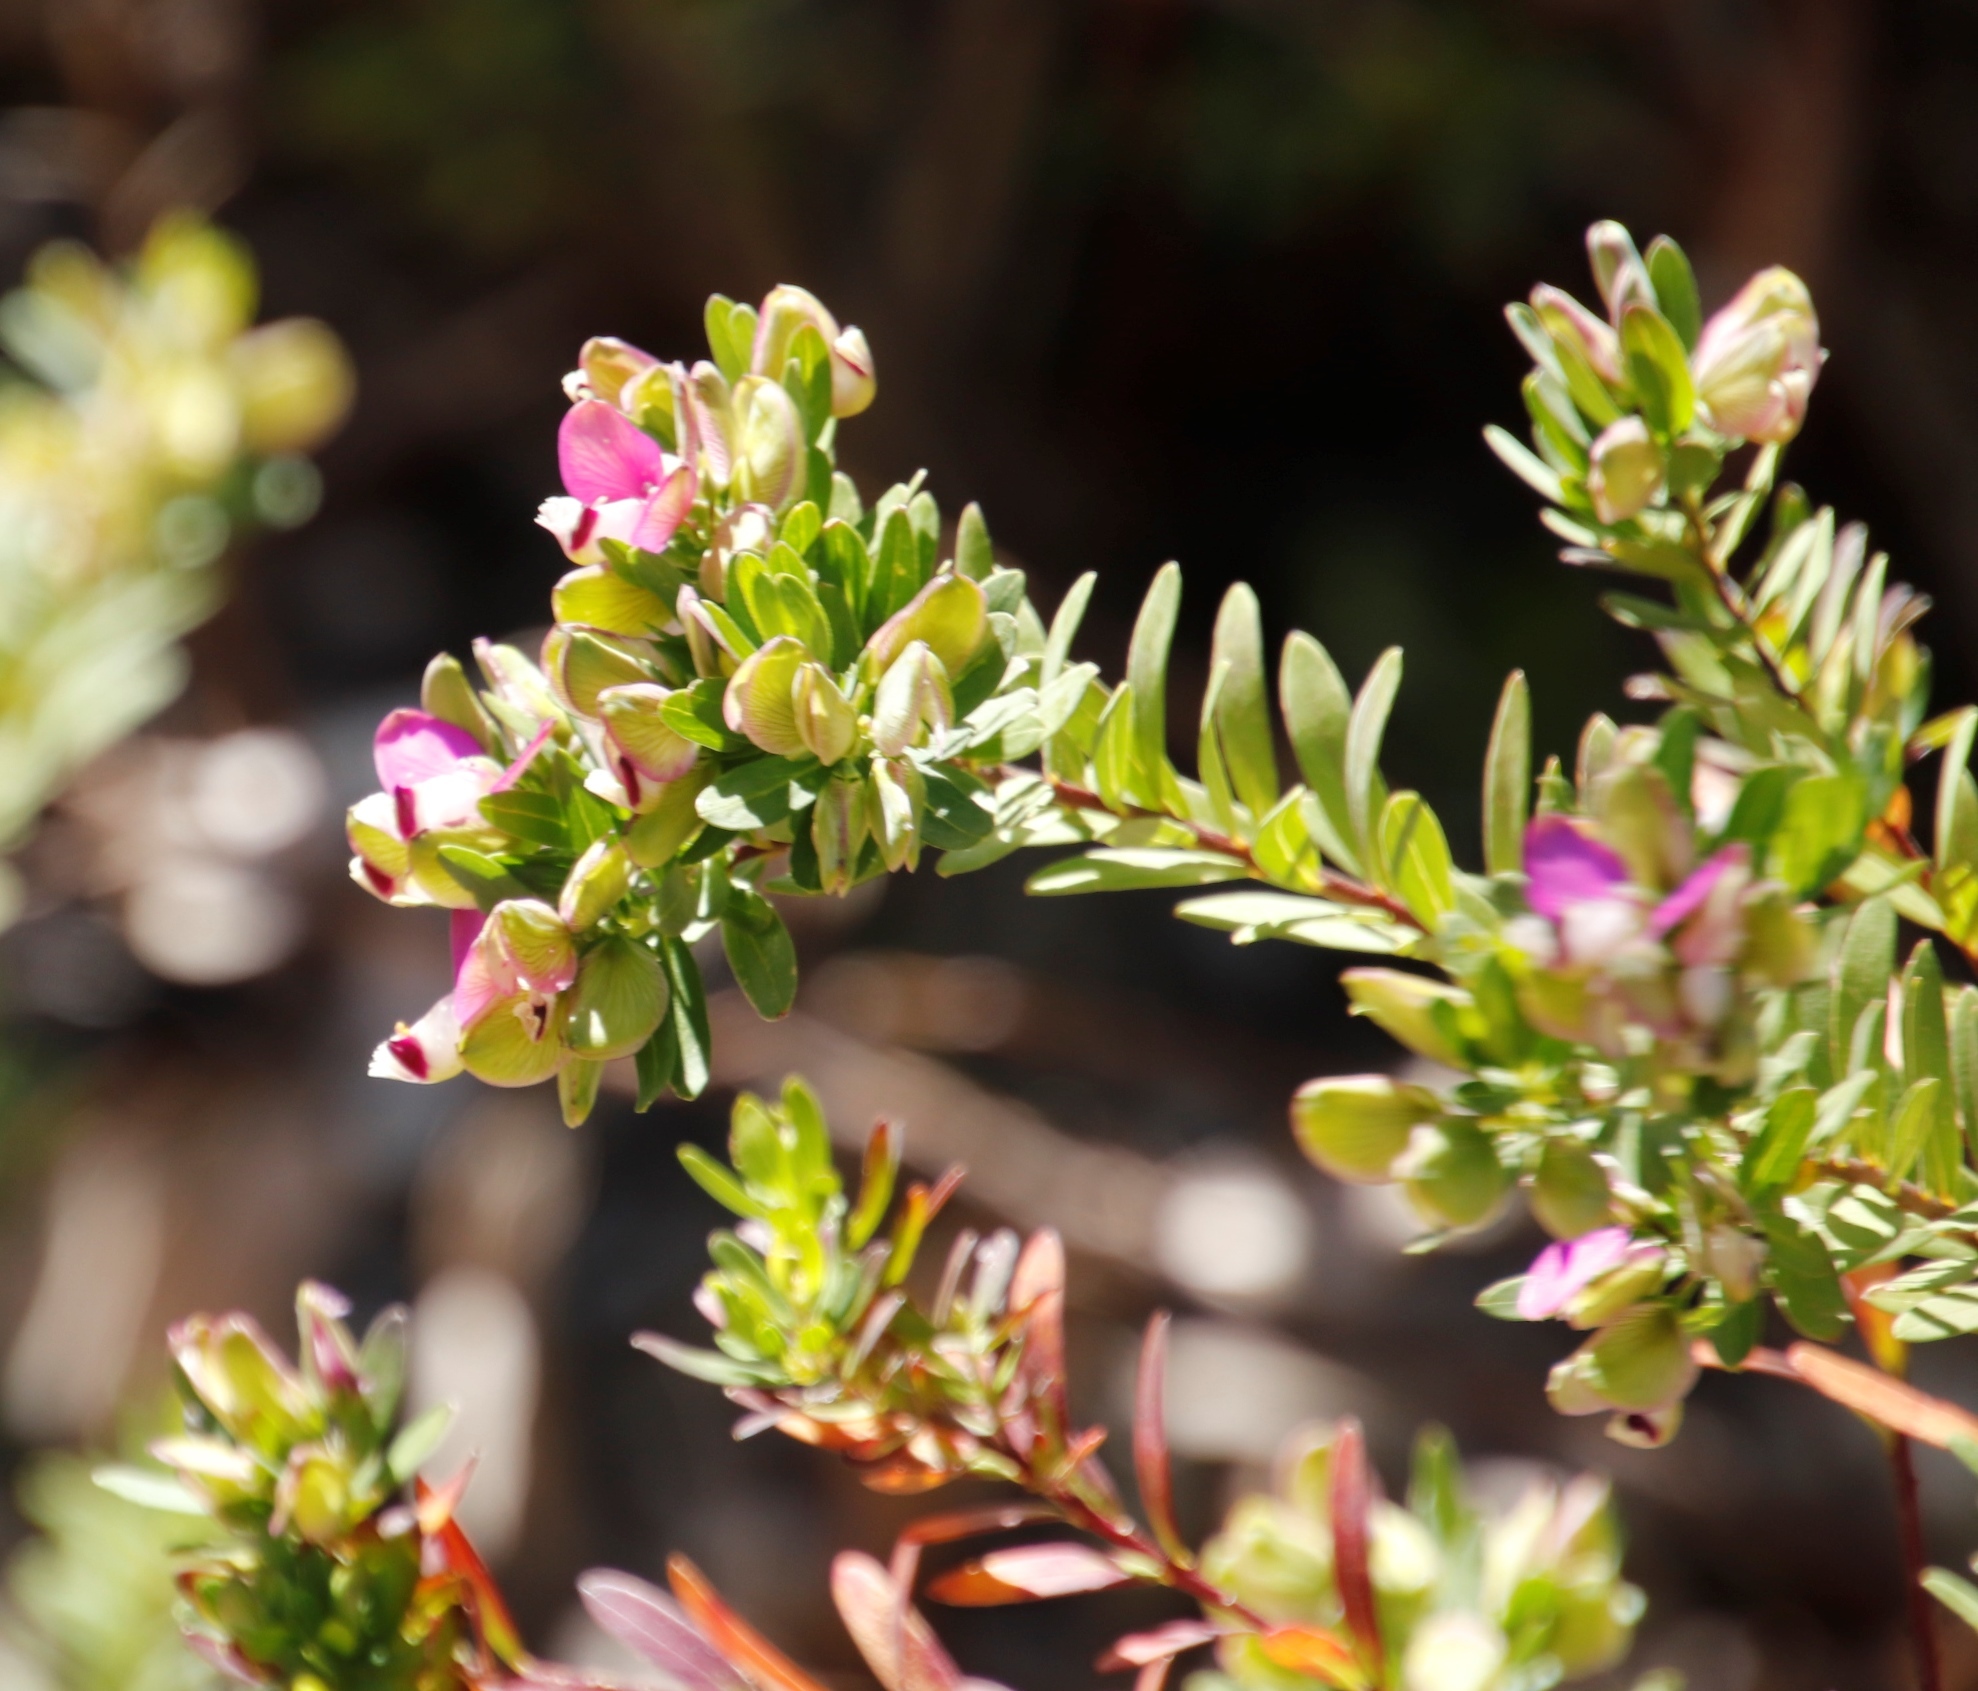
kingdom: Plantae
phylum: Tracheophyta
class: Magnoliopsida
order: Fabales
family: Polygalaceae
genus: Polygala
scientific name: Polygala myrtifolia
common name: Myrtle-leaf milkwort
